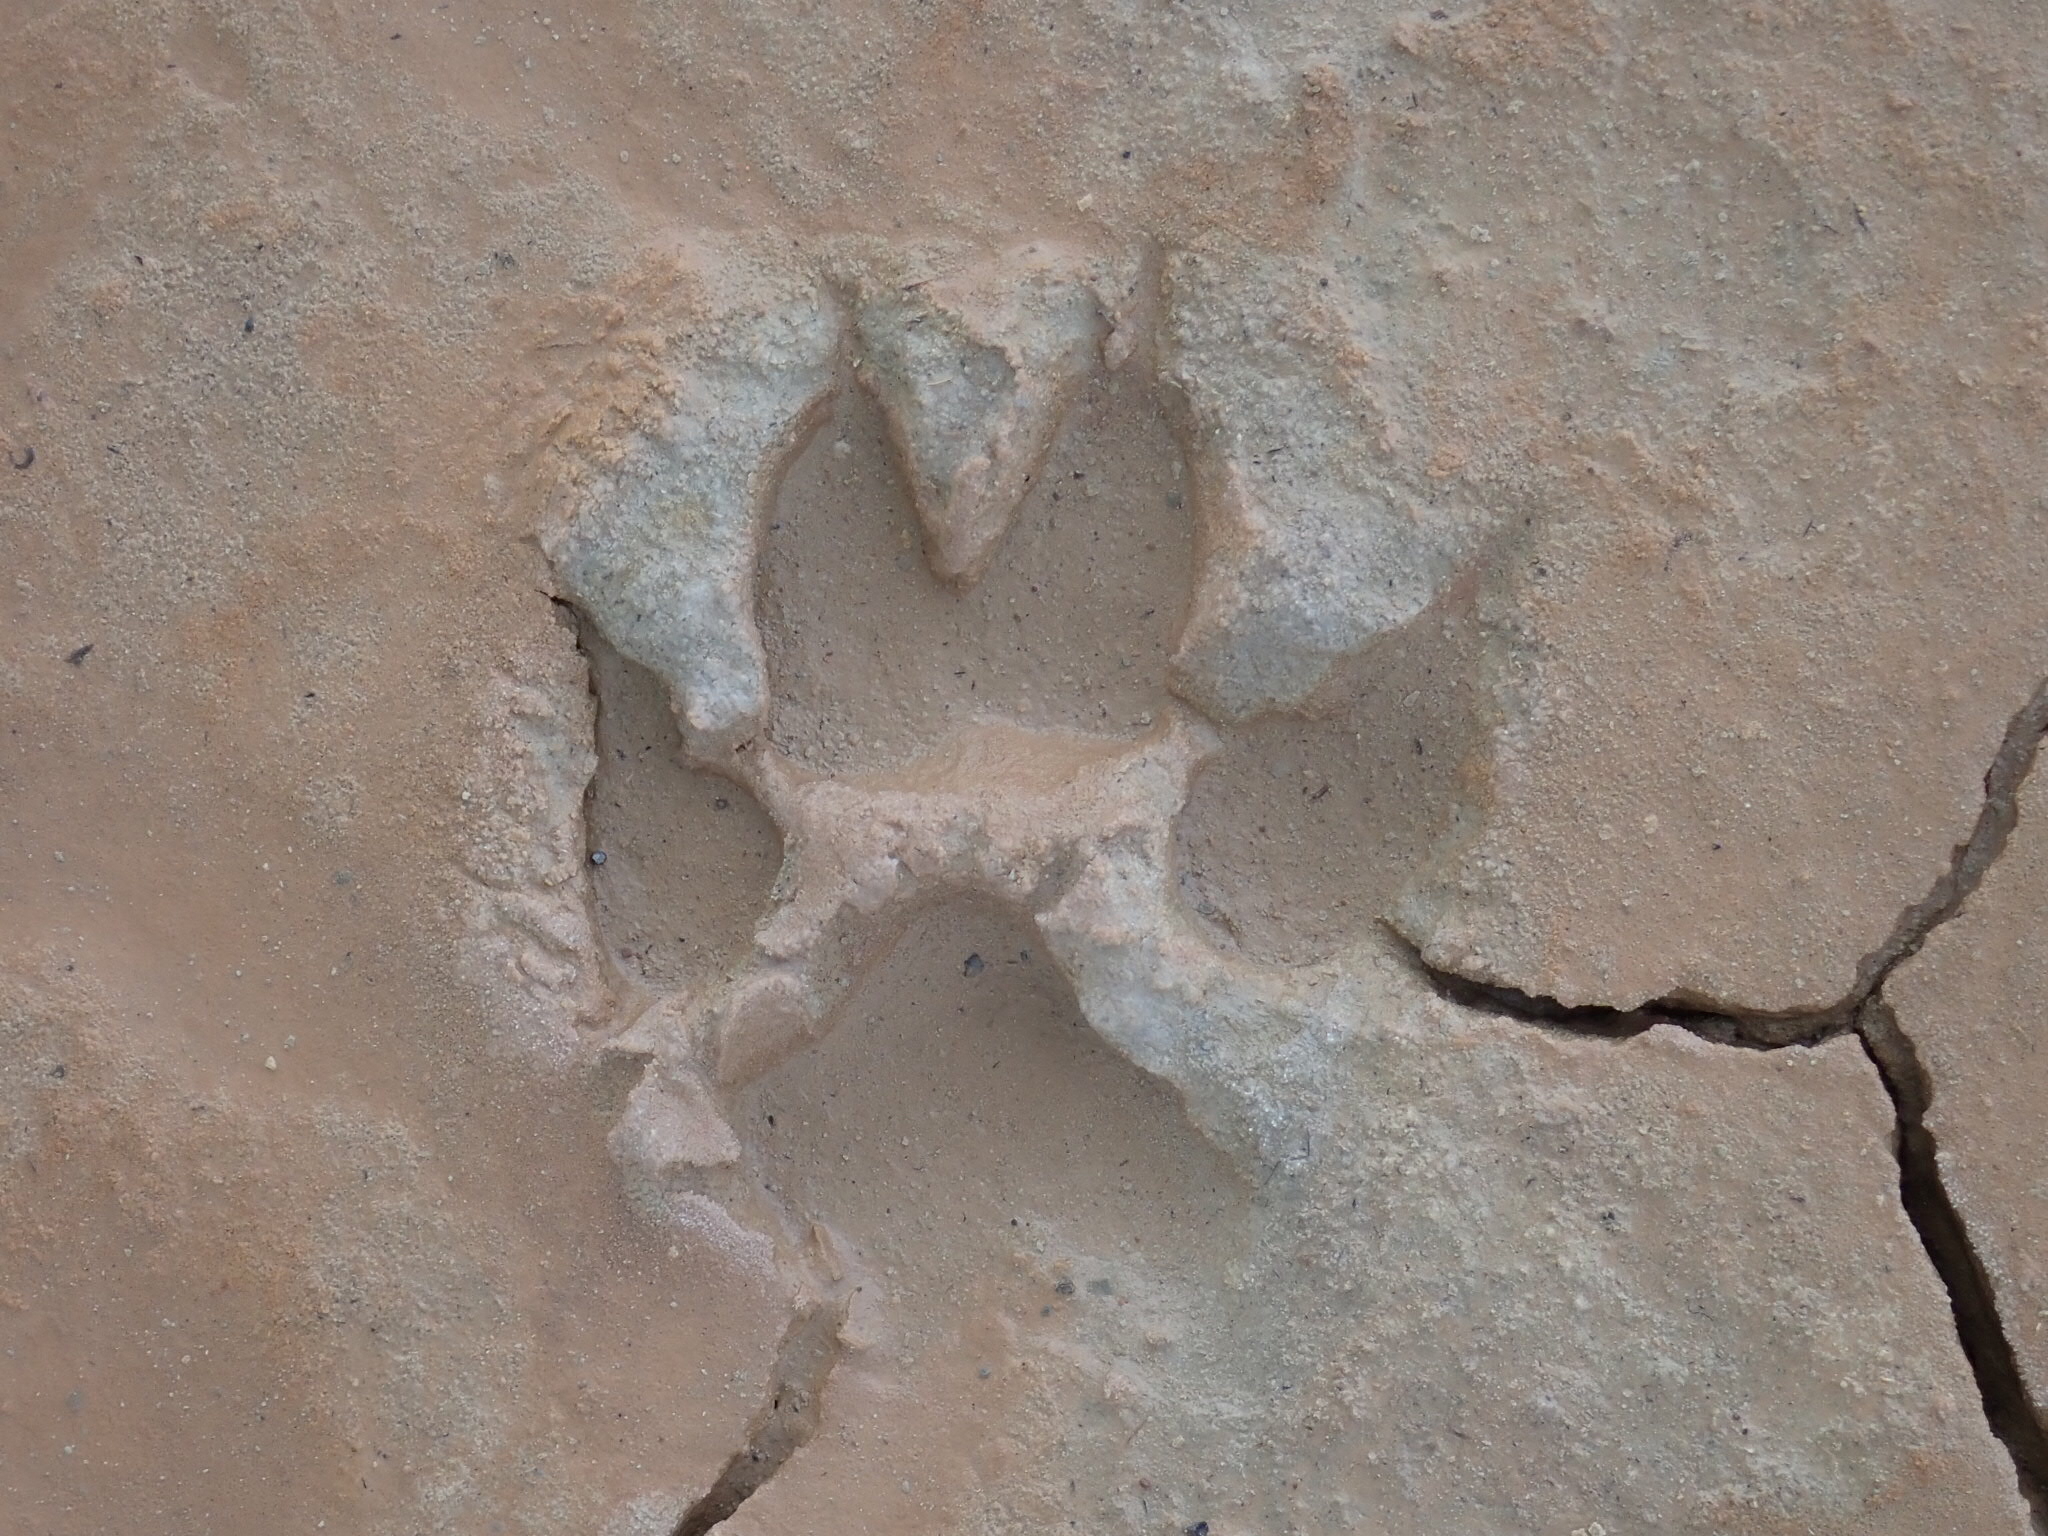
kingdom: Animalia
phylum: Chordata
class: Mammalia
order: Carnivora
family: Canidae
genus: Canis
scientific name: Canis latrans
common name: Coyote
